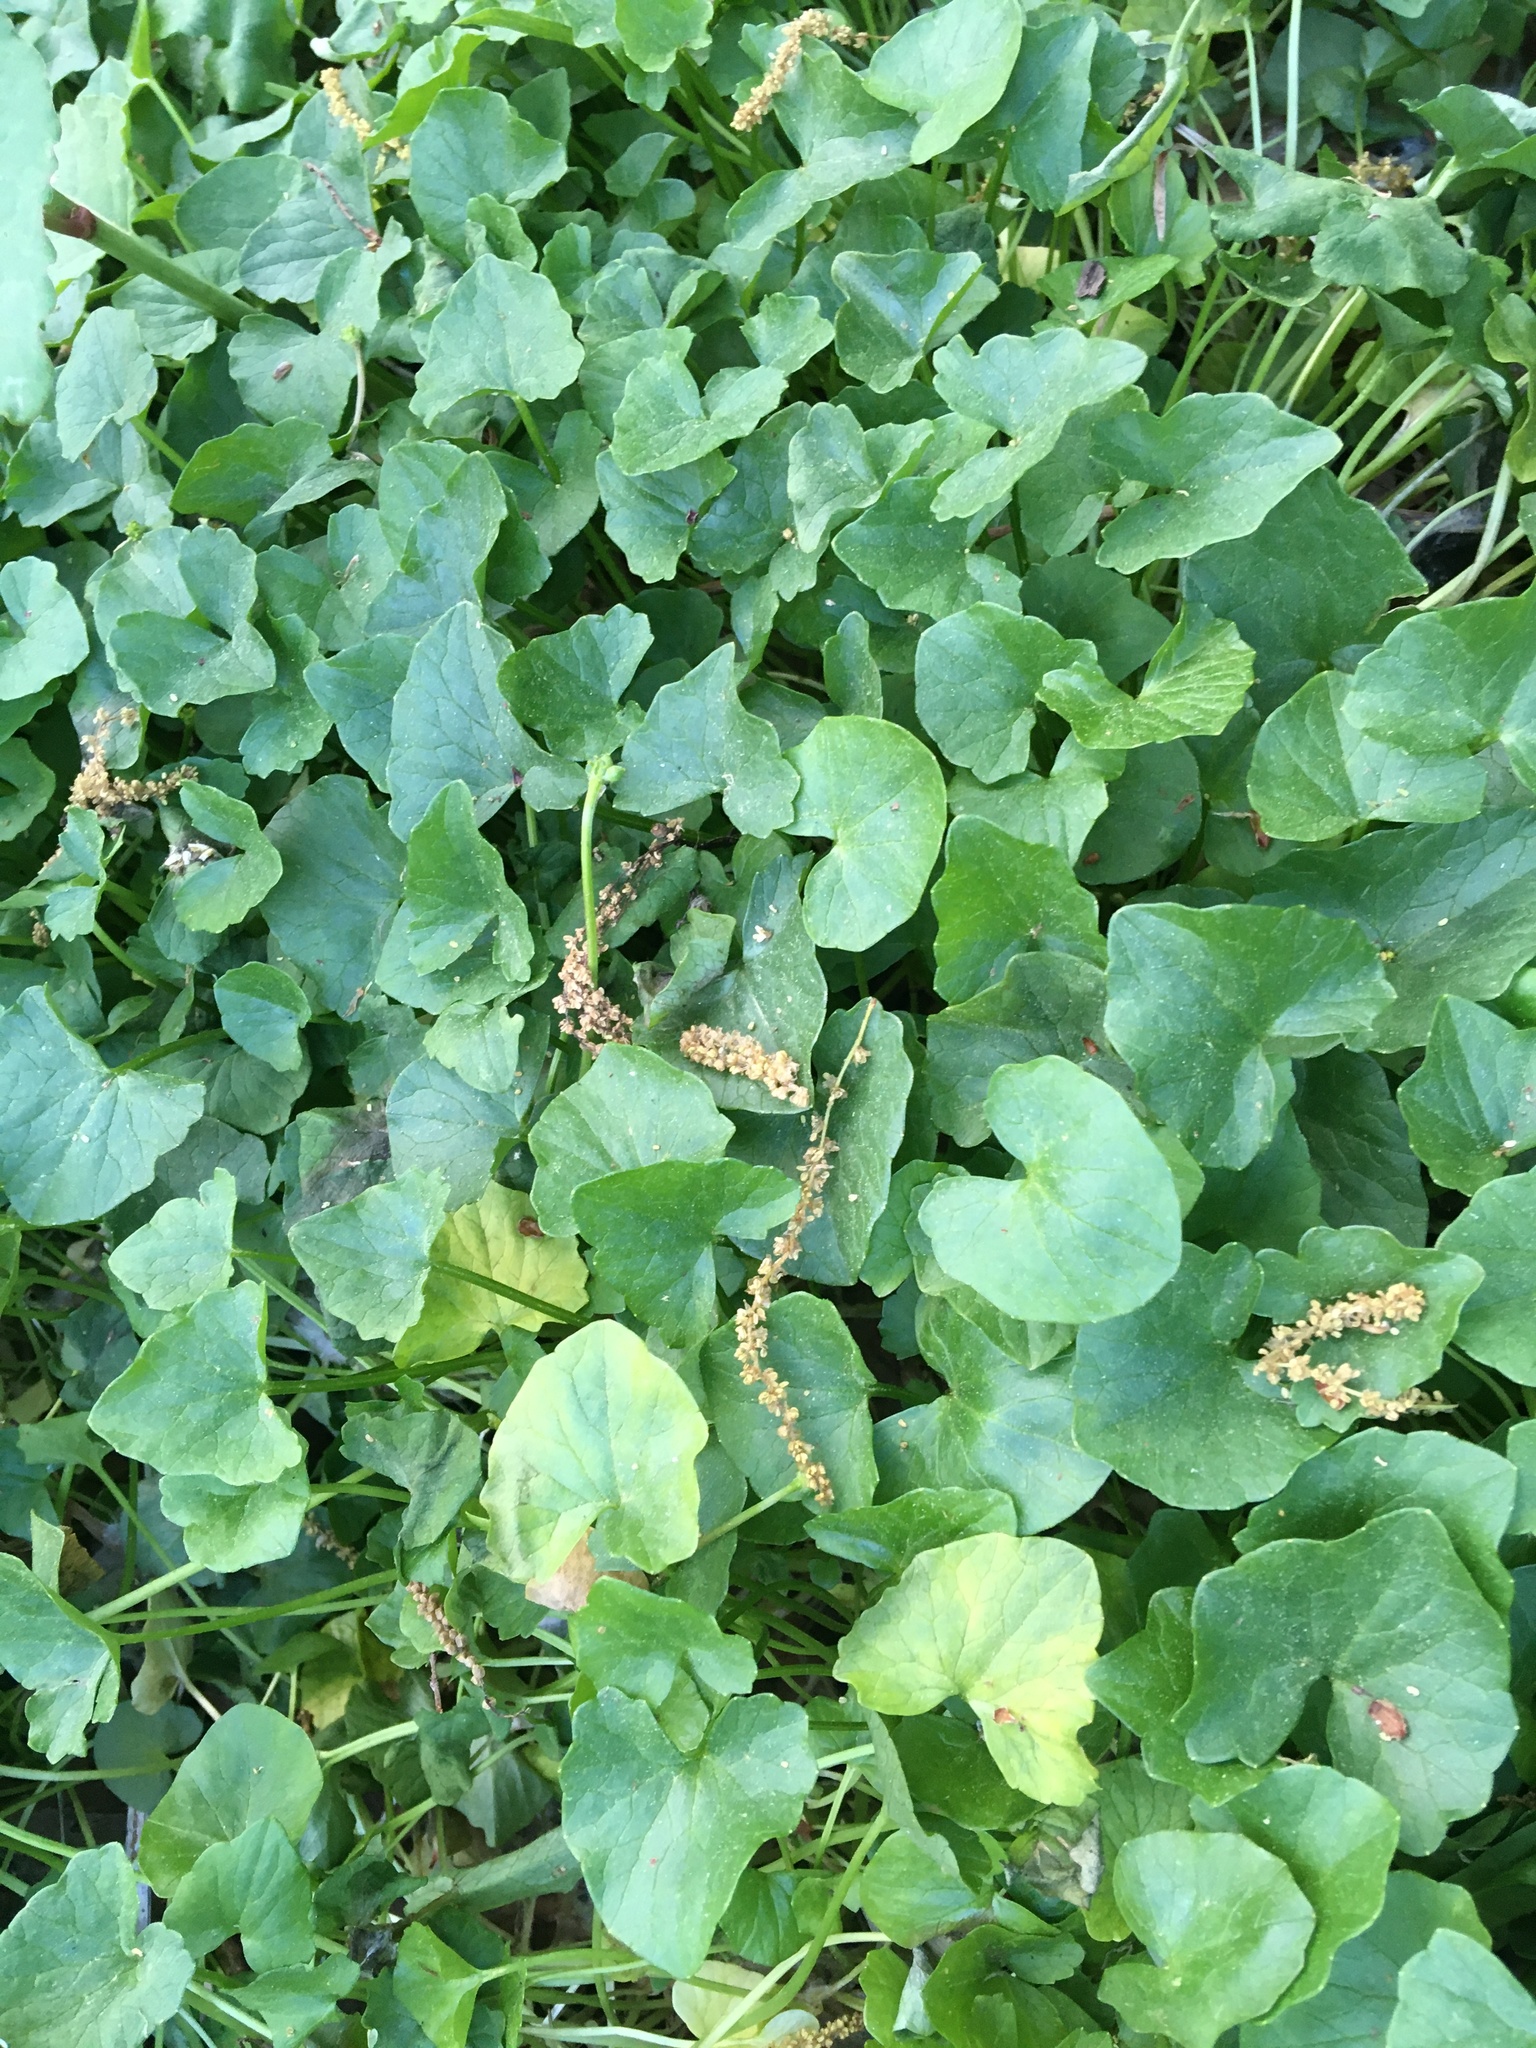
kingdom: Plantae
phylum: Tracheophyta
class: Magnoliopsida
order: Ranunculales
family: Ranunculaceae
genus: Ficaria
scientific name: Ficaria verna
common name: Lesser celandine
